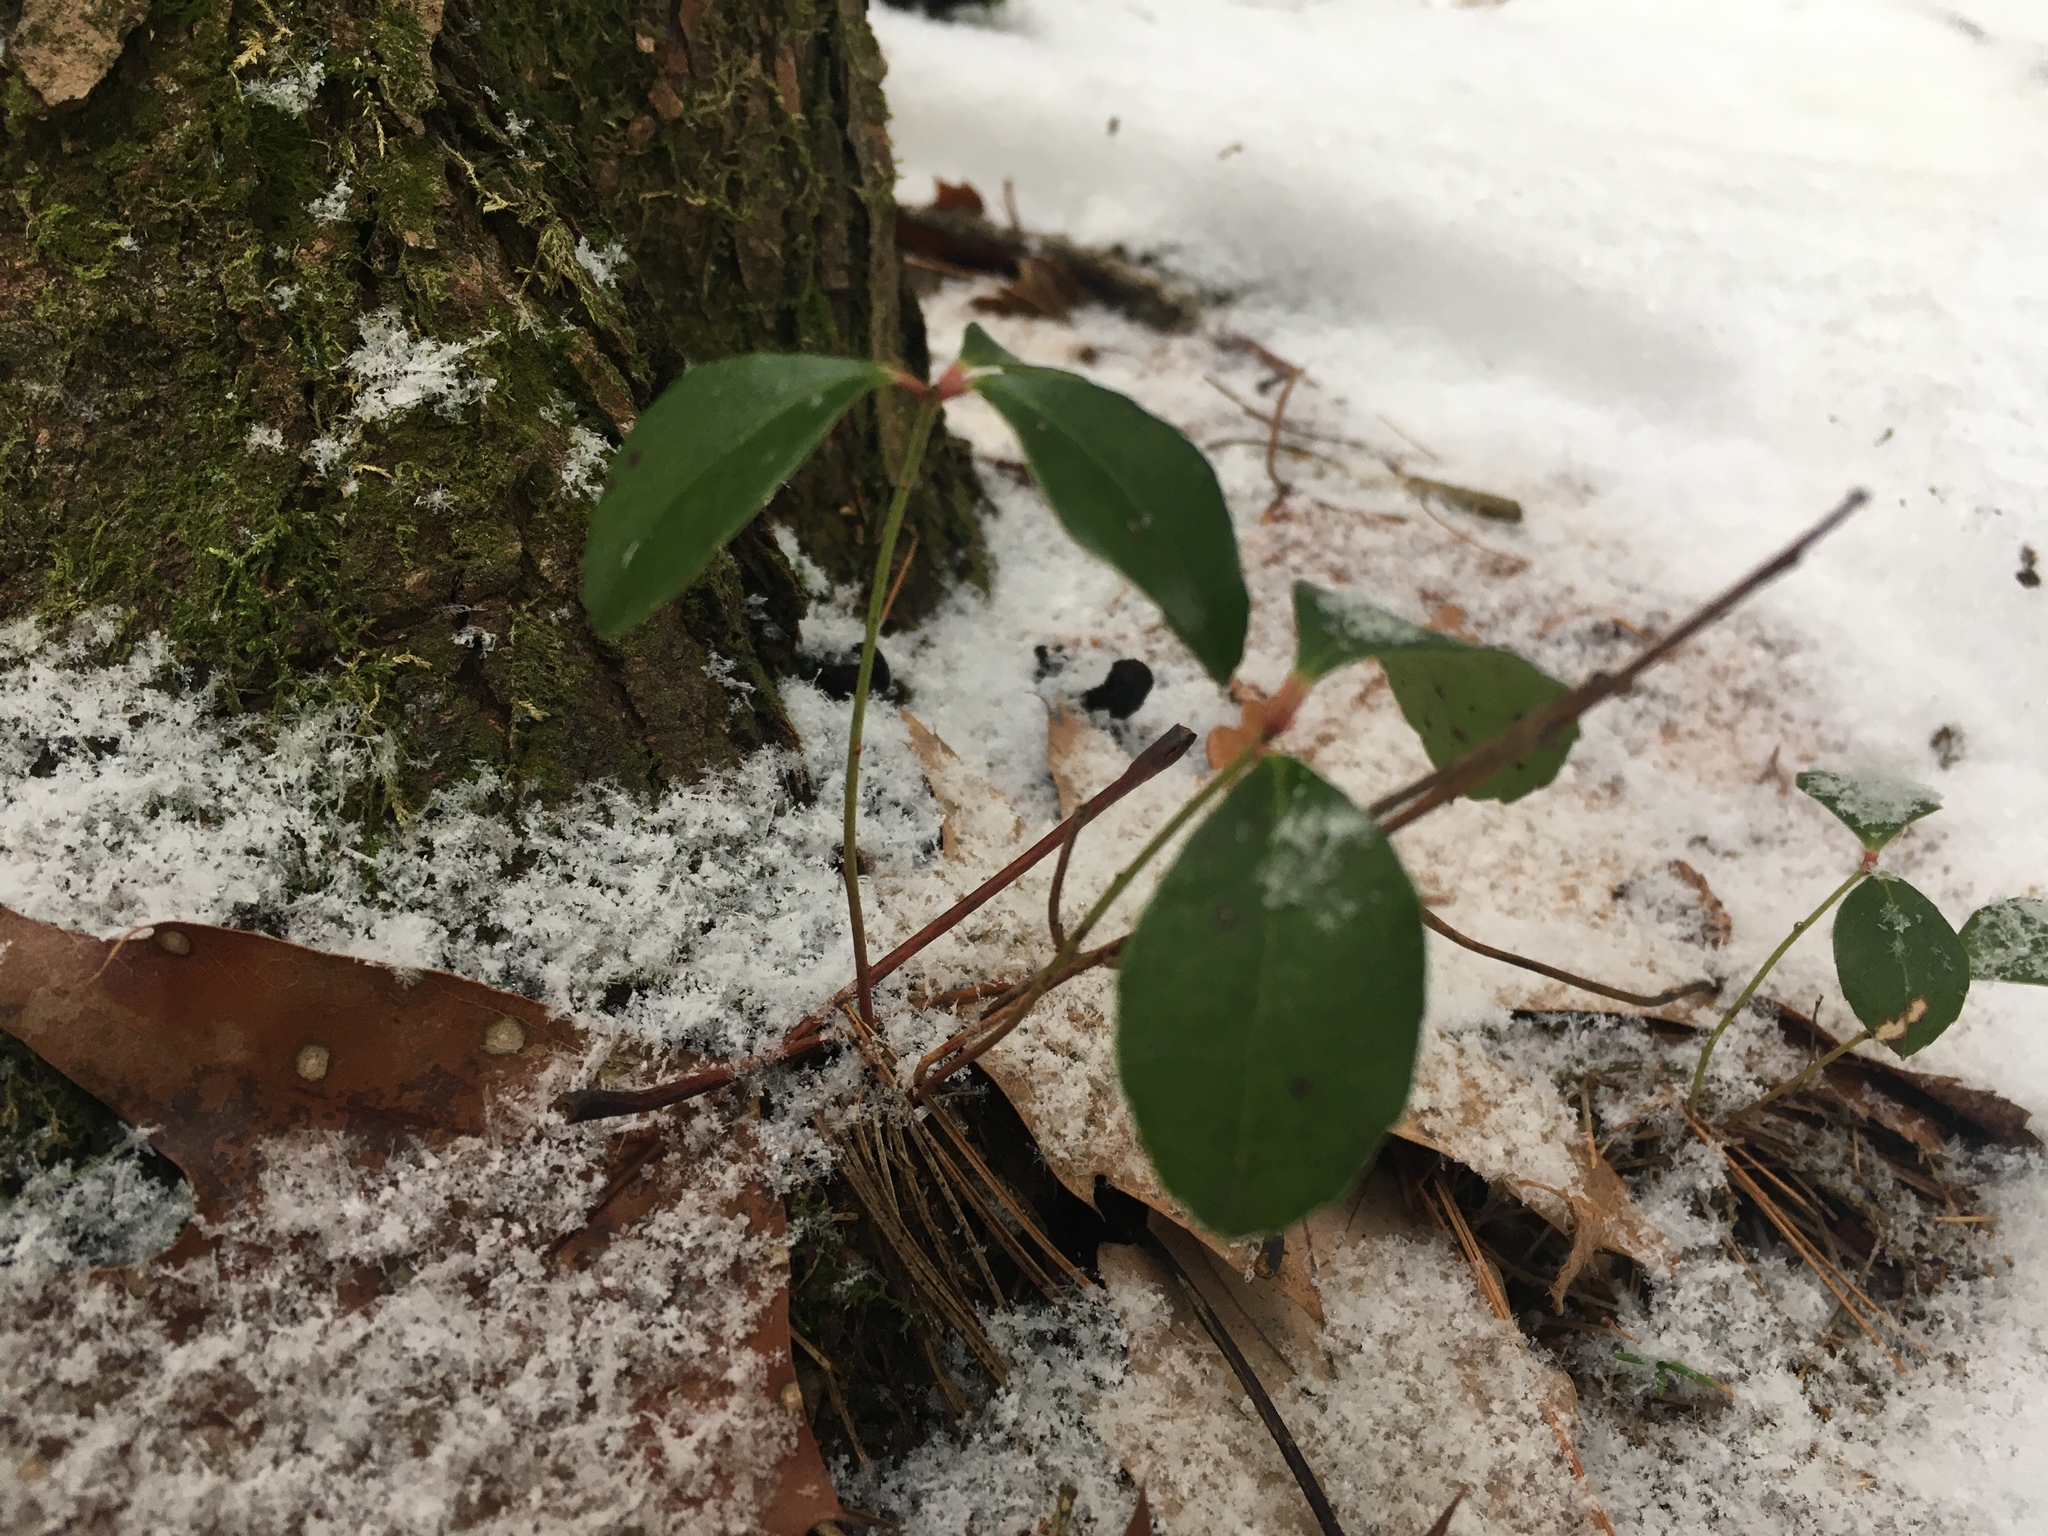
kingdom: Plantae
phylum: Tracheophyta
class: Magnoliopsida
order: Ericales
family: Ericaceae
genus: Gaultheria
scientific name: Gaultheria procumbens
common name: Checkerberry
